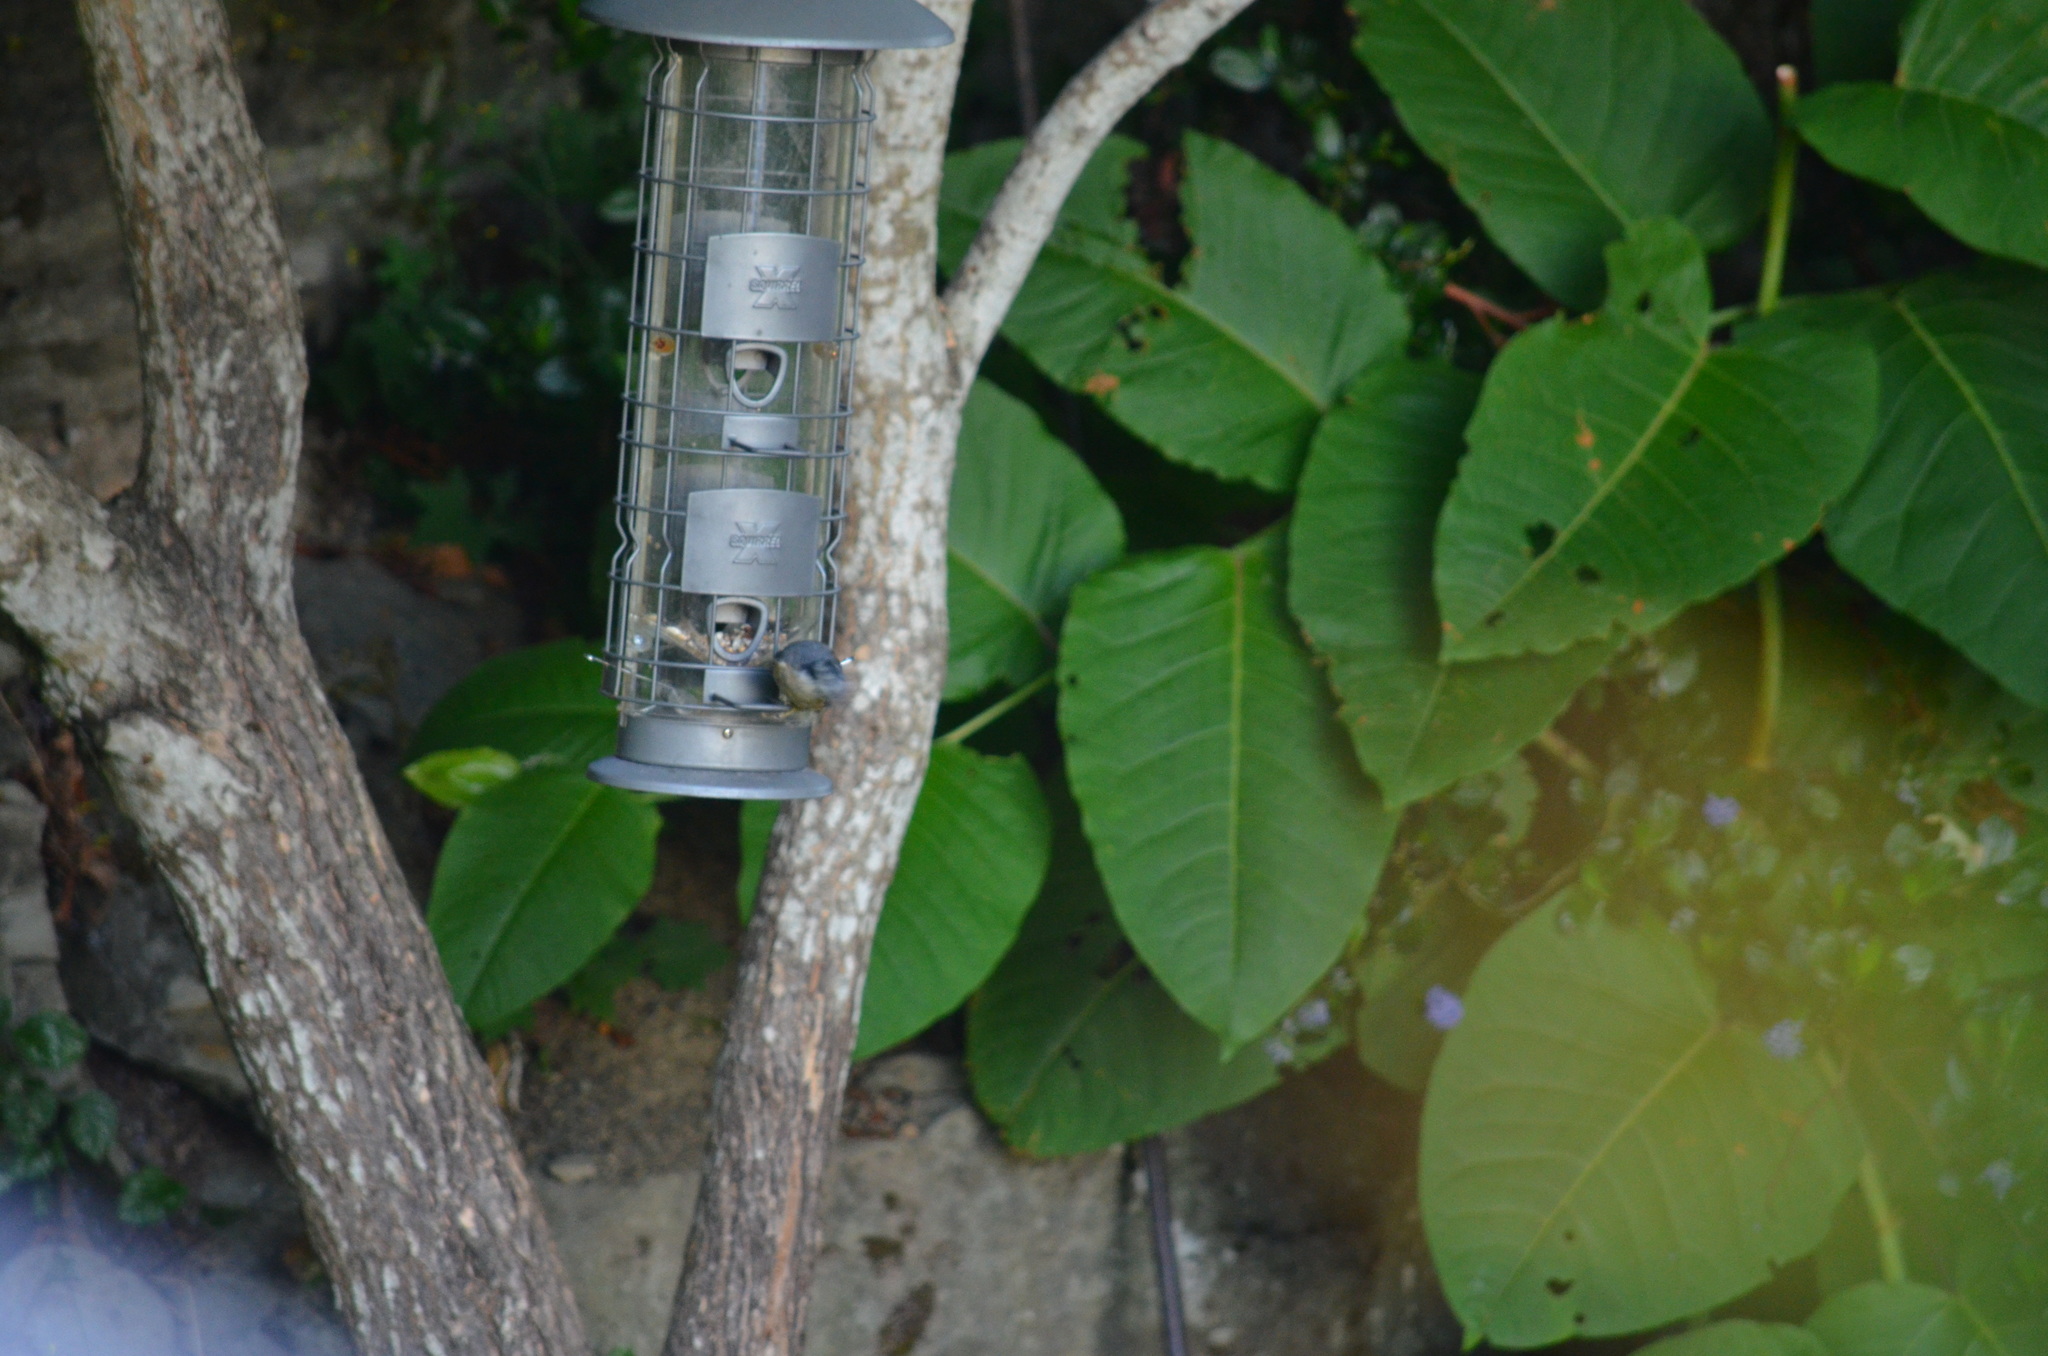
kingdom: Animalia
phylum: Chordata
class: Aves
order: Passeriformes
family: Sittidae
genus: Sitta
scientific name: Sitta canadensis
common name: Red-breasted nuthatch
